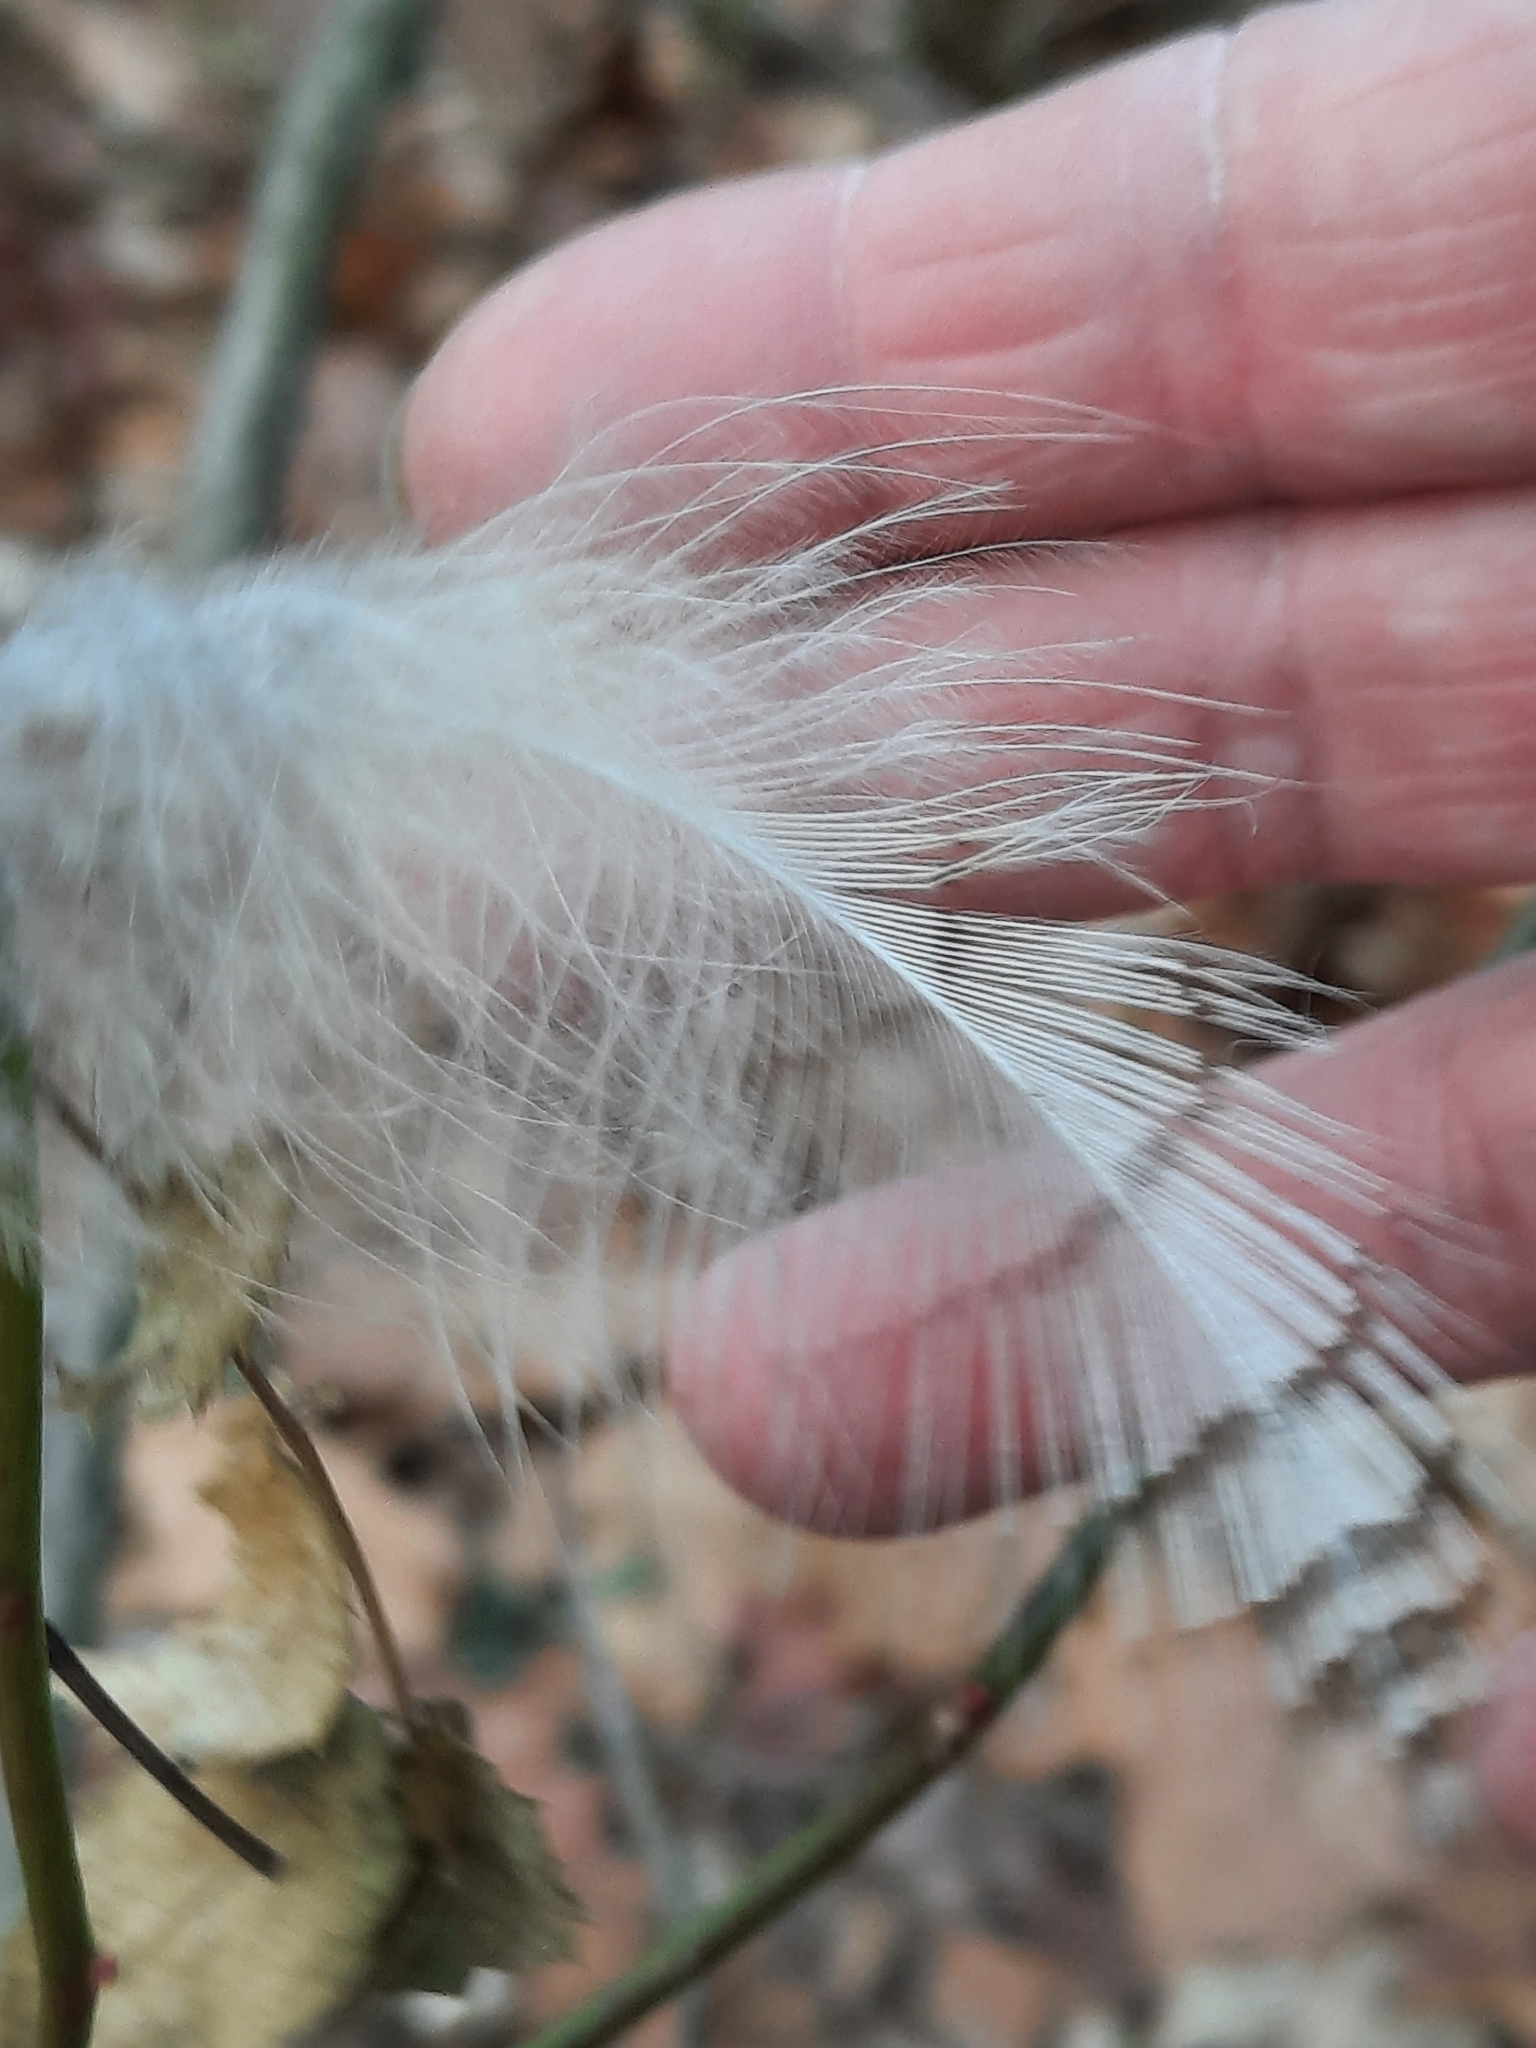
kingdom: Animalia
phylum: Chordata
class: Aves
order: Strigiformes
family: Strigidae
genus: Bubo
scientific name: Bubo virginianus
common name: Great horned owl
